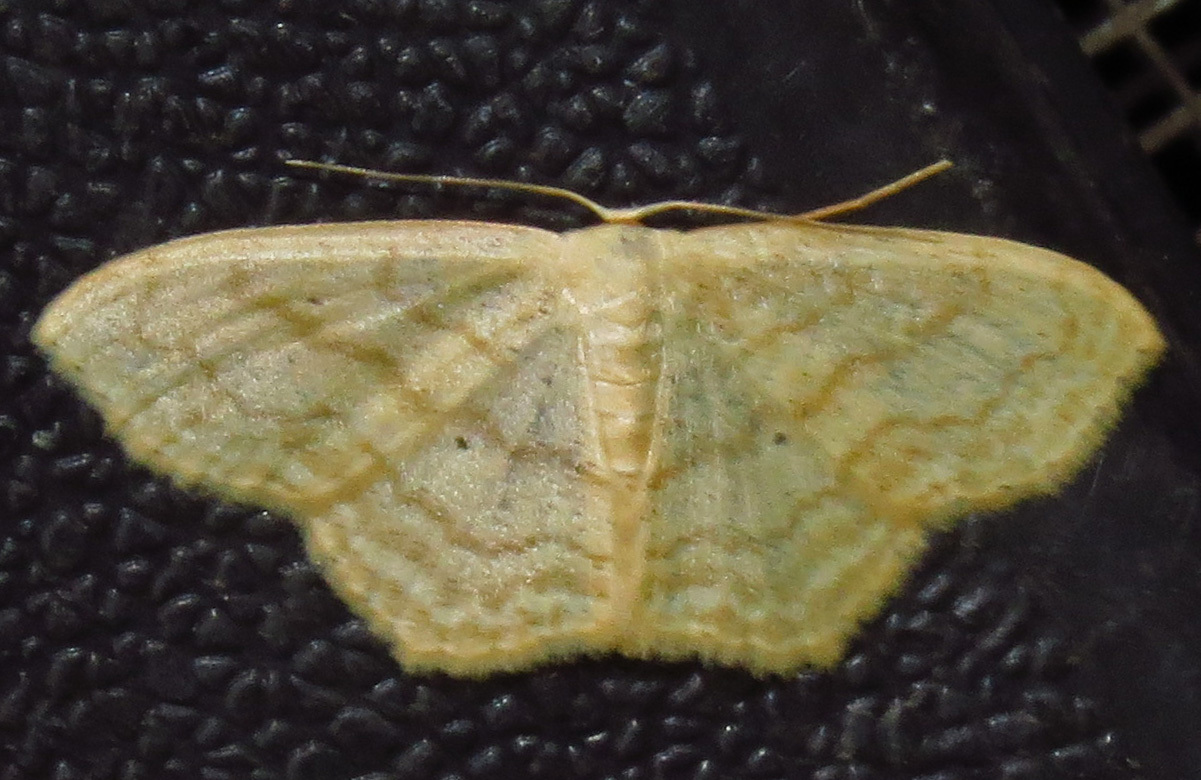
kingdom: Animalia
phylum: Arthropoda
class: Insecta
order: Lepidoptera
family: Geometridae
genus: Scopula
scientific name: Scopula limboundata
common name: Large lace border
